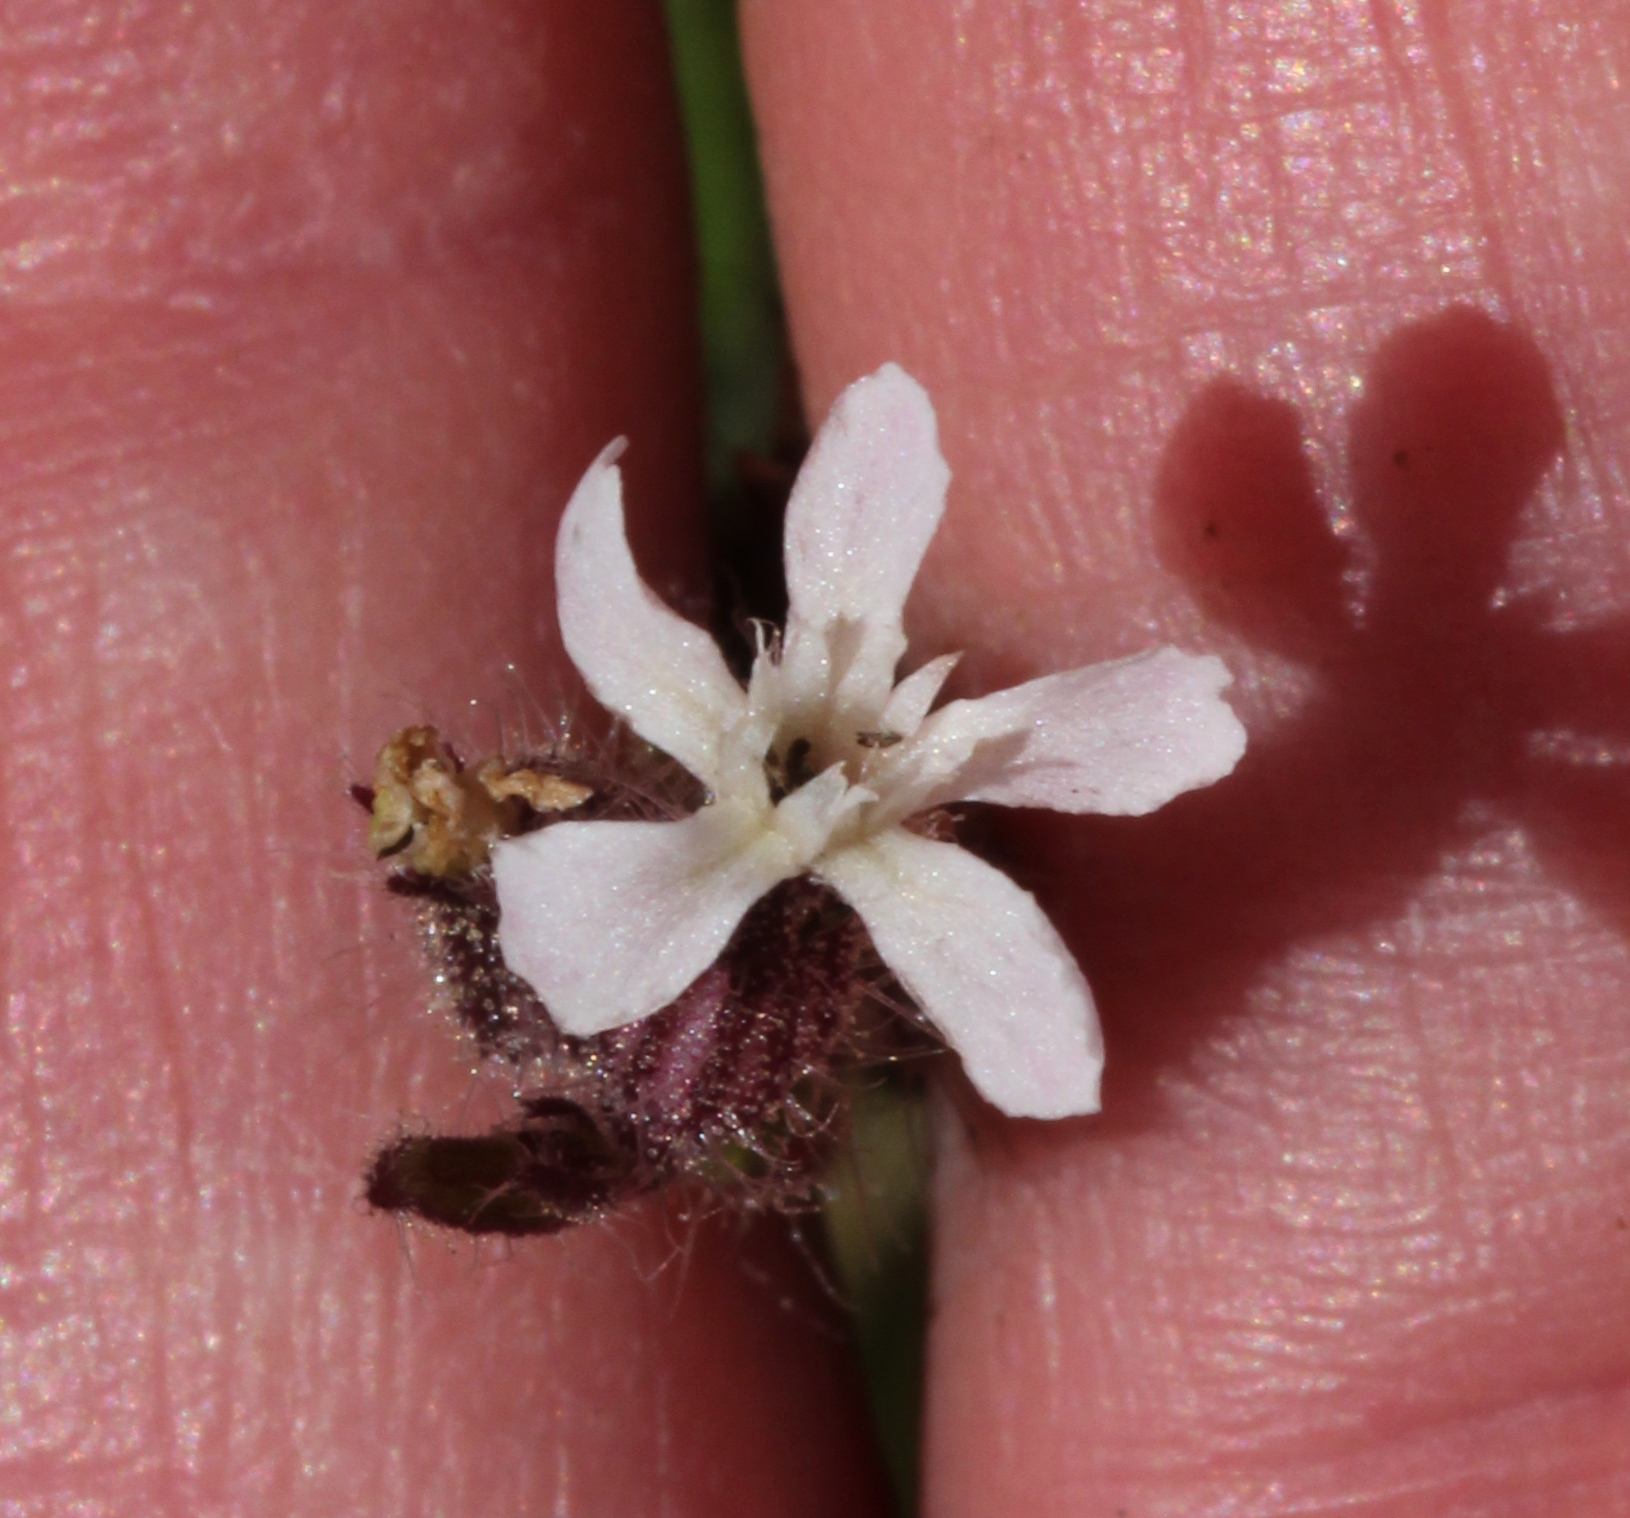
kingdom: Plantae
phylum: Tracheophyta
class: Magnoliopsida
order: Caryophyllales
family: Caryophyllaceae
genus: Silene
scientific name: Silene gallica
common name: Small-flowered catchfly
